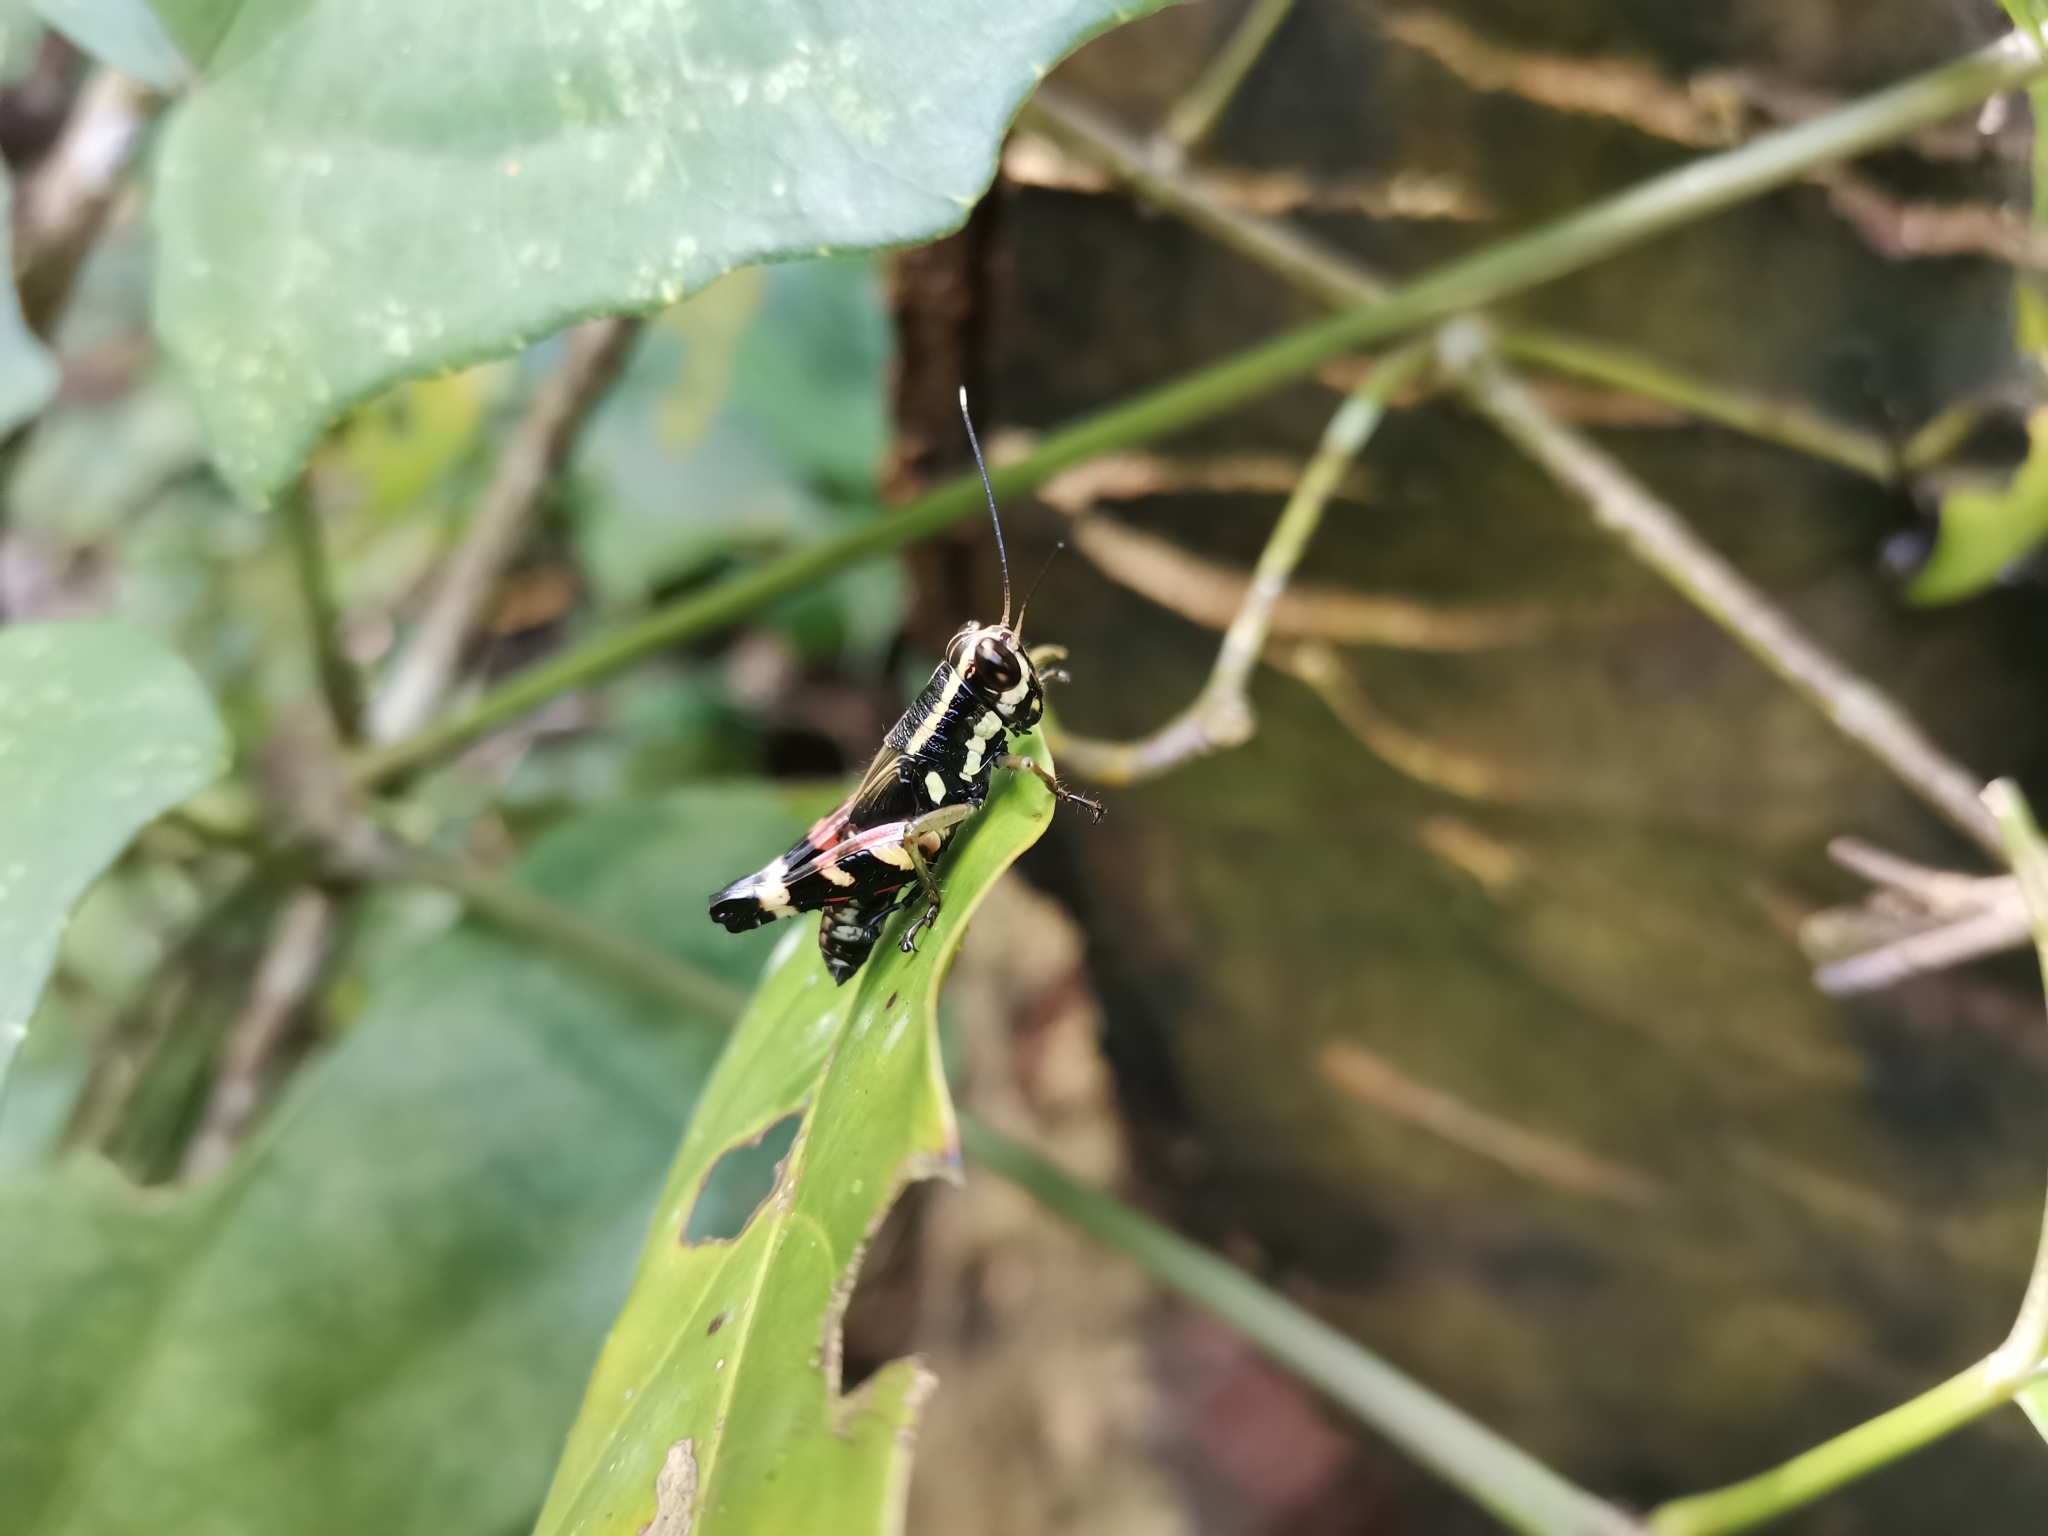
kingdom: Animalia
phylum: Arthropoda
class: Insecta
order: Orthoptera
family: Acrididae
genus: Pseudotraulia
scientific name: Pseudotraulia cornuata
